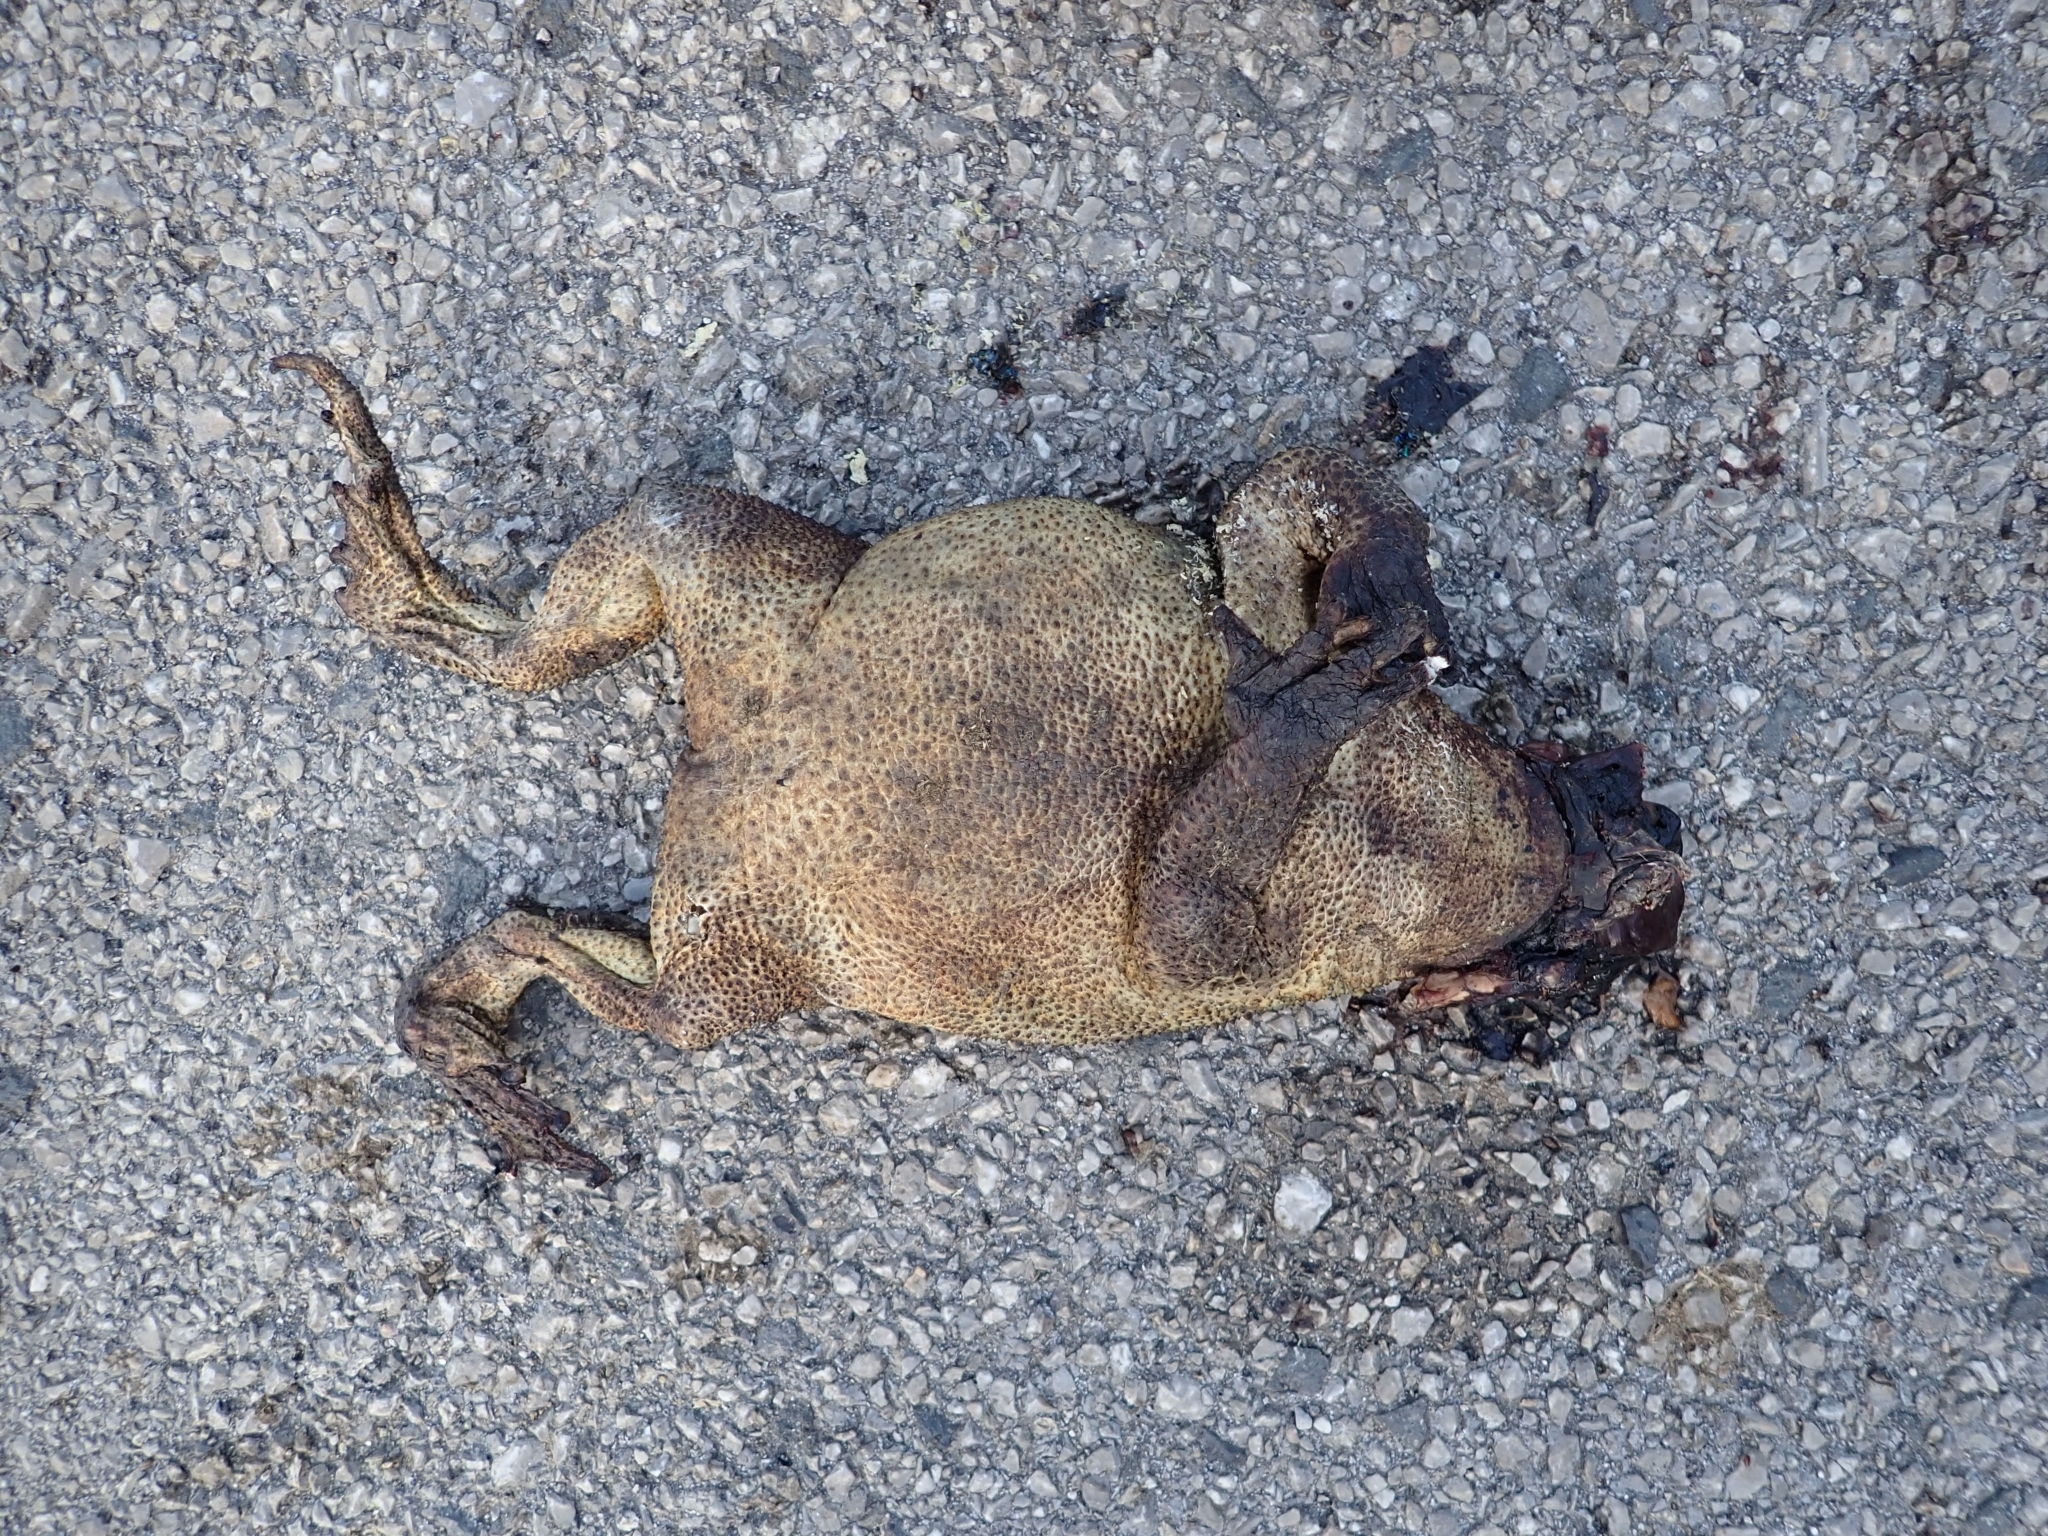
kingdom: Animalia
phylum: Chordata
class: Amphibia
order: Anura
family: Bufonidae
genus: Bufo
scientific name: Bufo bufo
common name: Common toad
